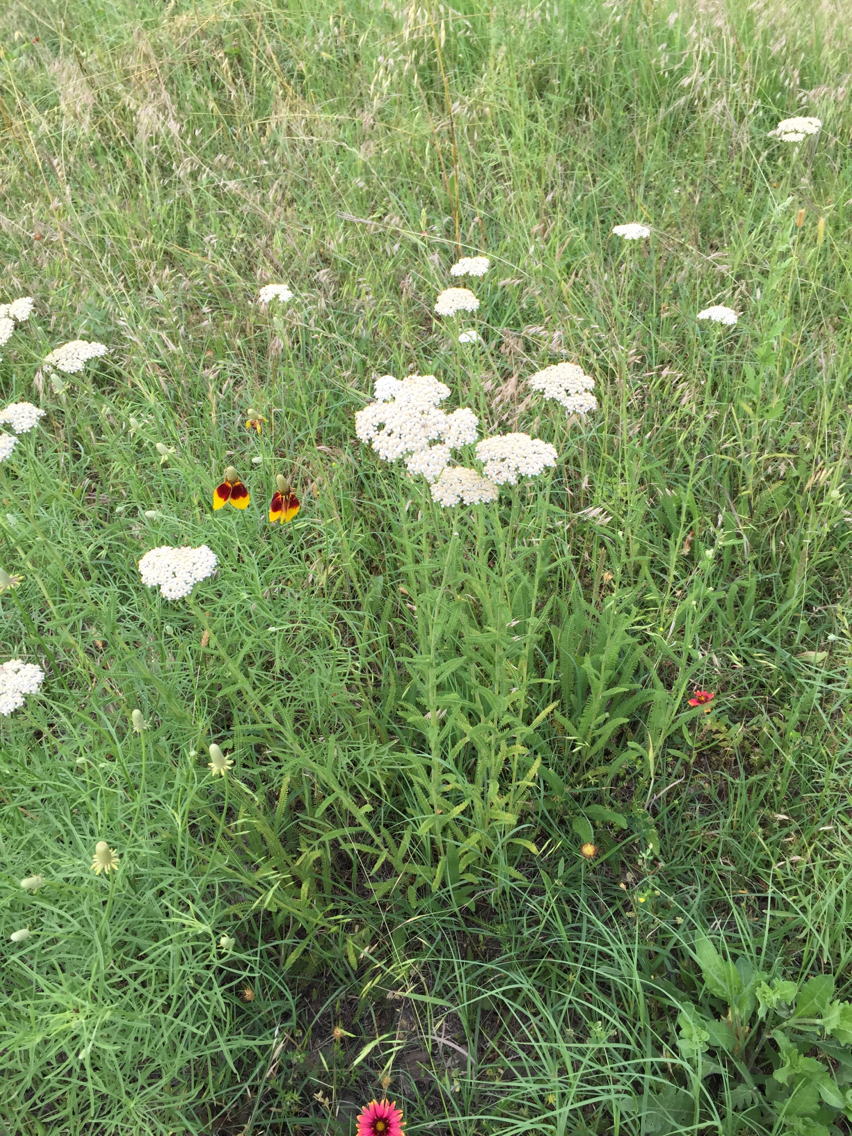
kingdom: Plantae
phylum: Tracheophyta
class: Magnoliopsida
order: Asterales
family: Asteraceae
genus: Achillea
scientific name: Achillea millefolium
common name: Yarrow
